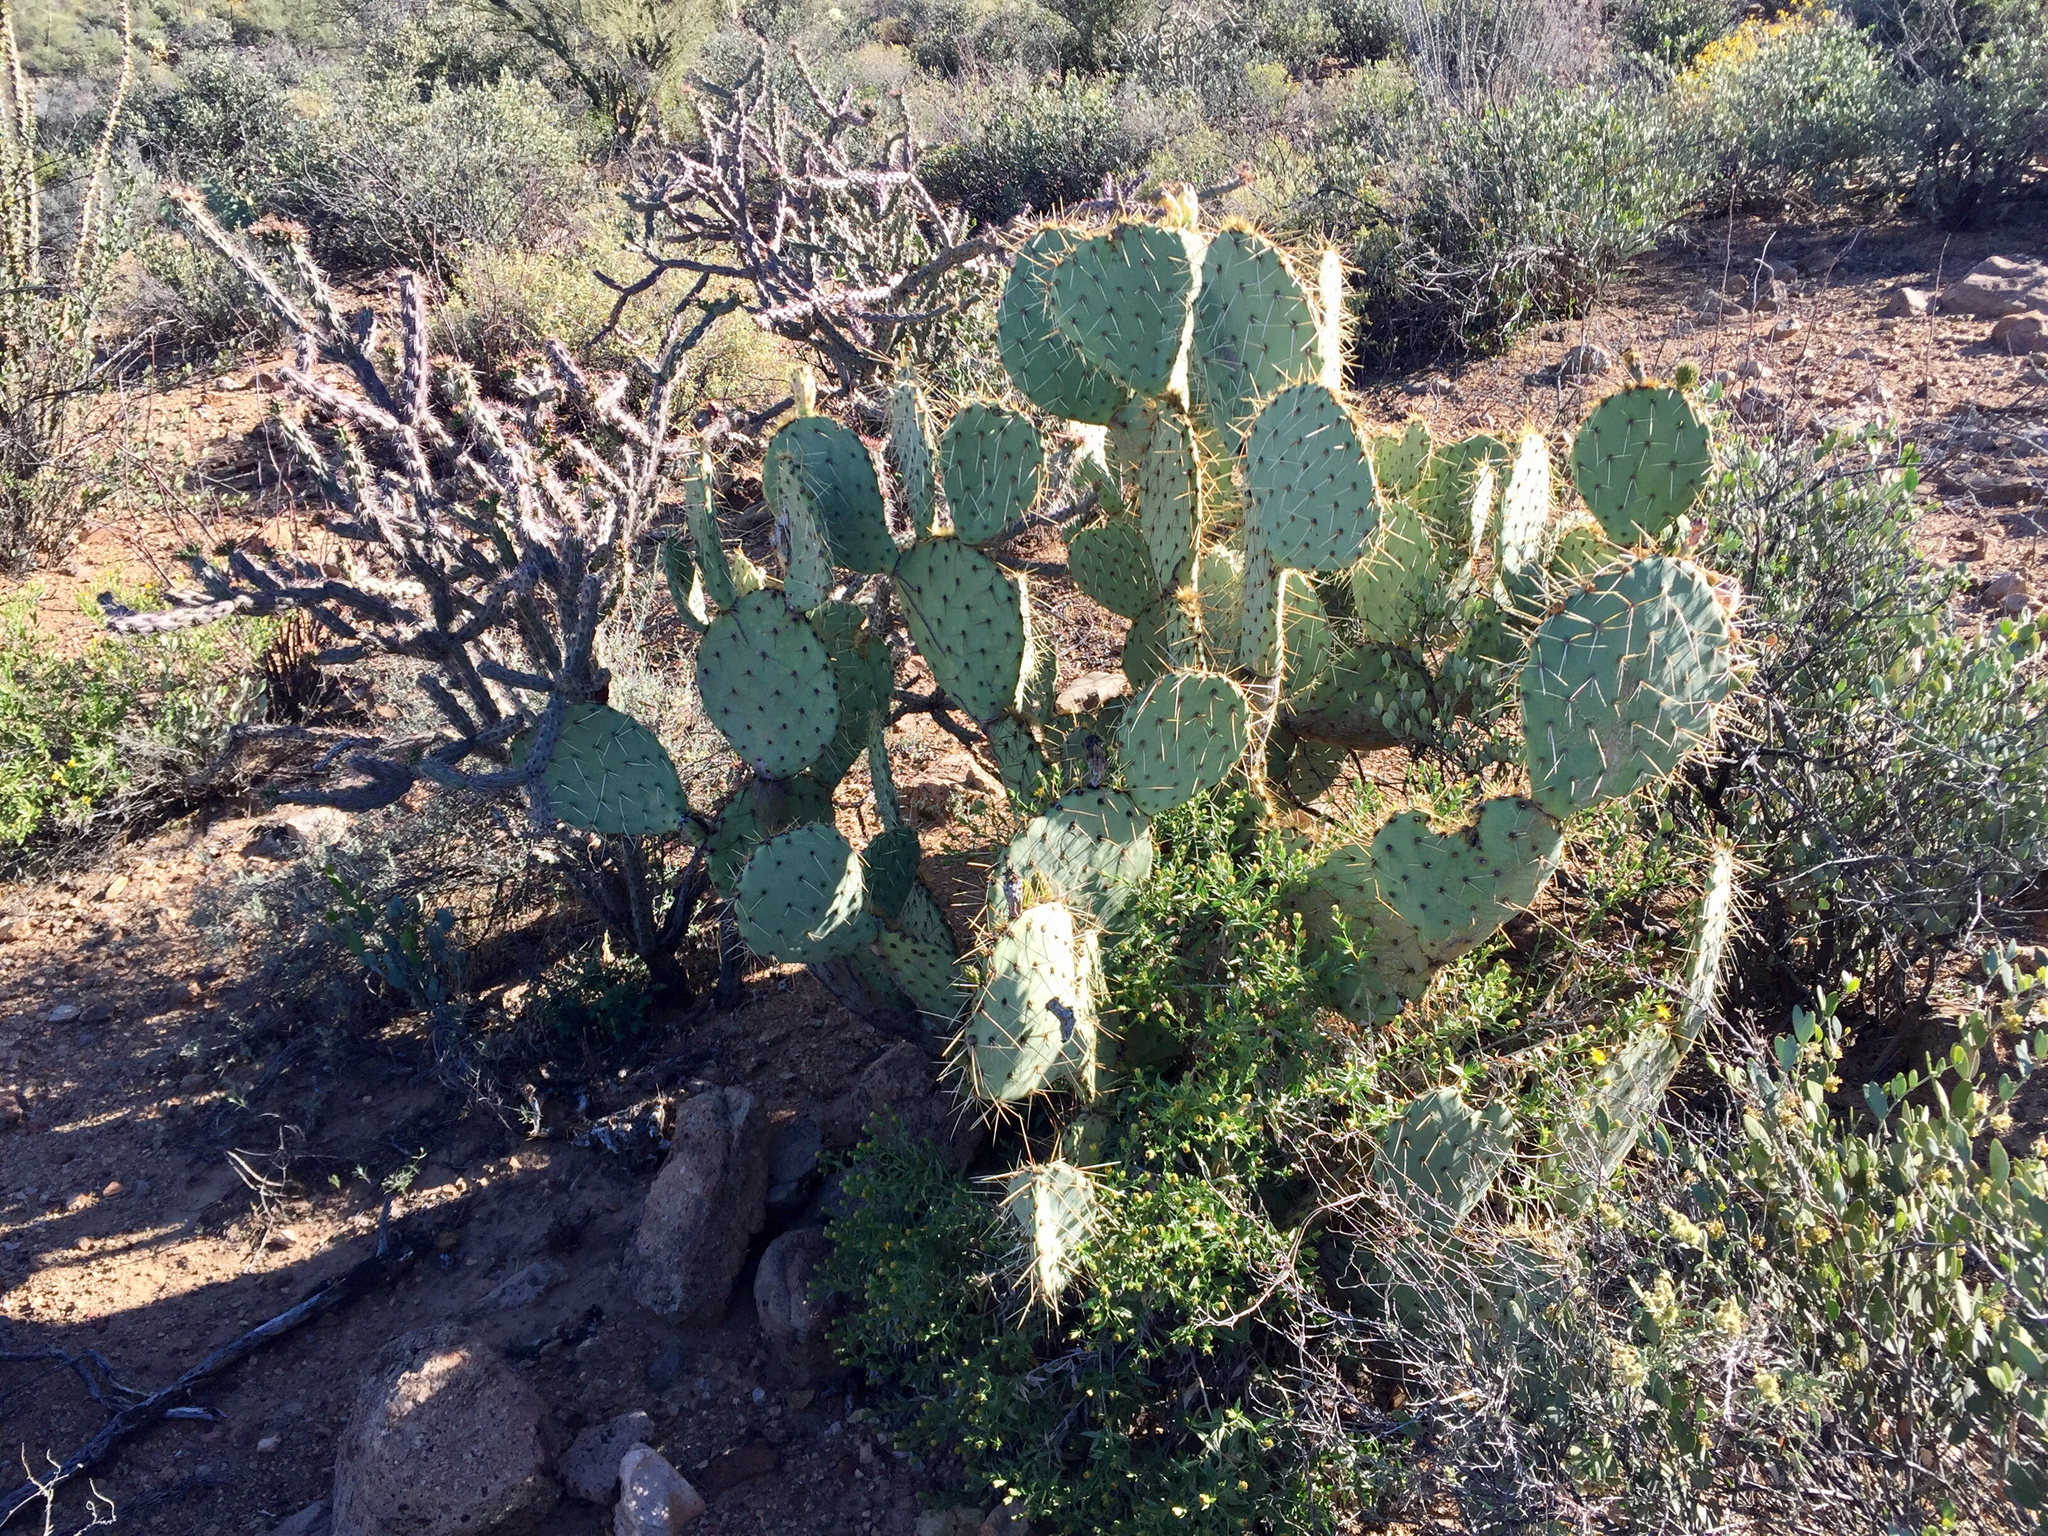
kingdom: Plantae
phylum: Tracheophyta
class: Magnoliopsida
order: Caryophyllales
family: Cactaceae
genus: Opuntia
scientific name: Opuntia engelmannii
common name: Cactus-apple
